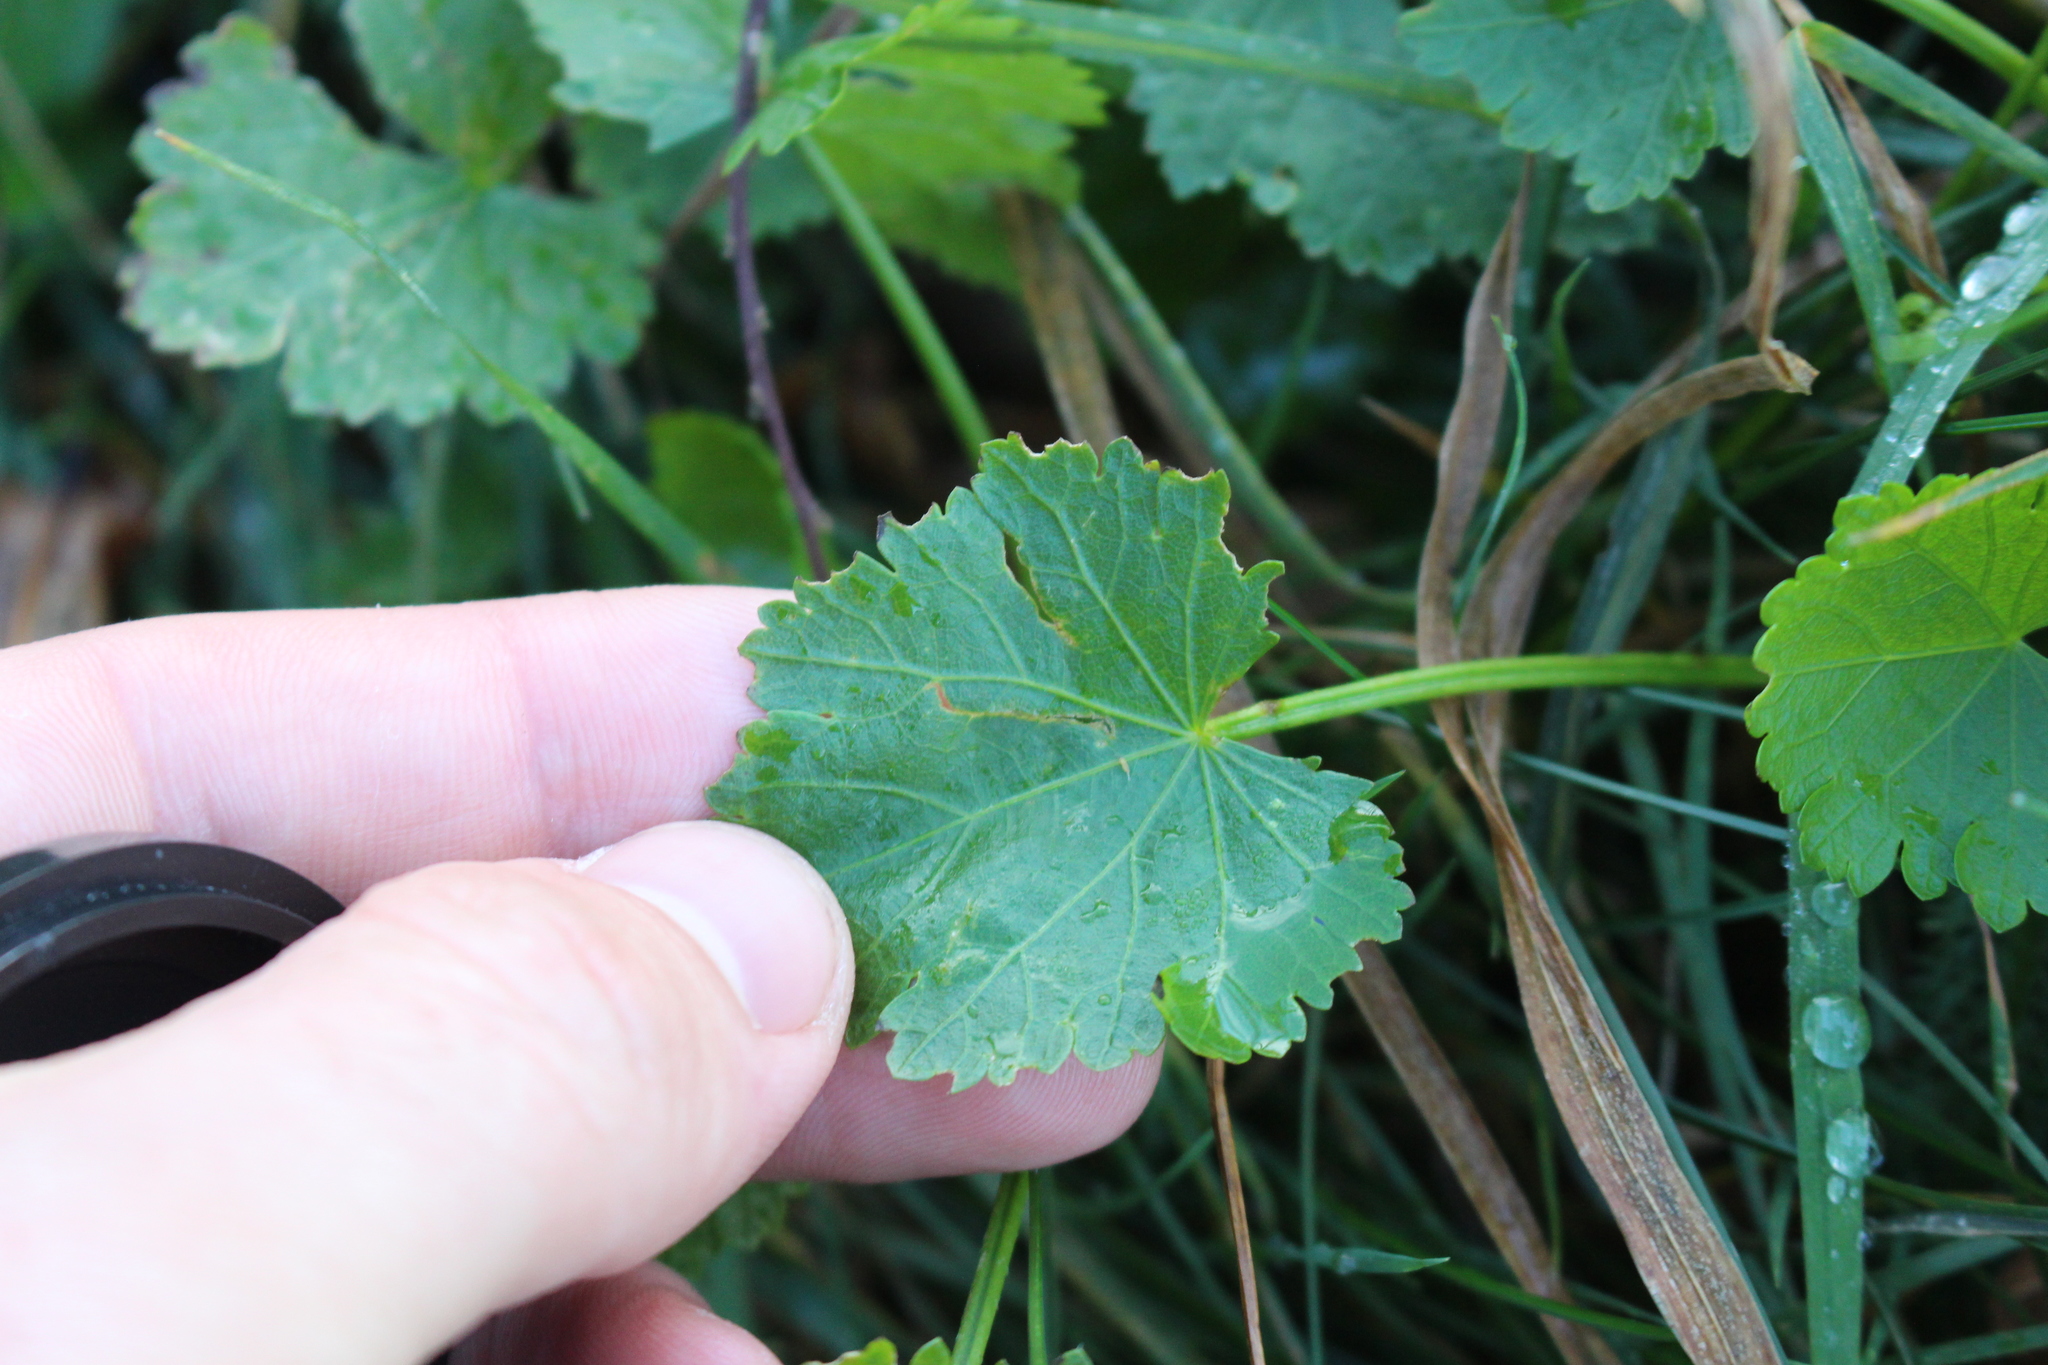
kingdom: Plantae
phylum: Tracheophyta
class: Magnoliopsida
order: Malvales
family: Malvaceae
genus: Modiola
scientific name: Modiola caroliniana
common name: Carolina bristlemallow
